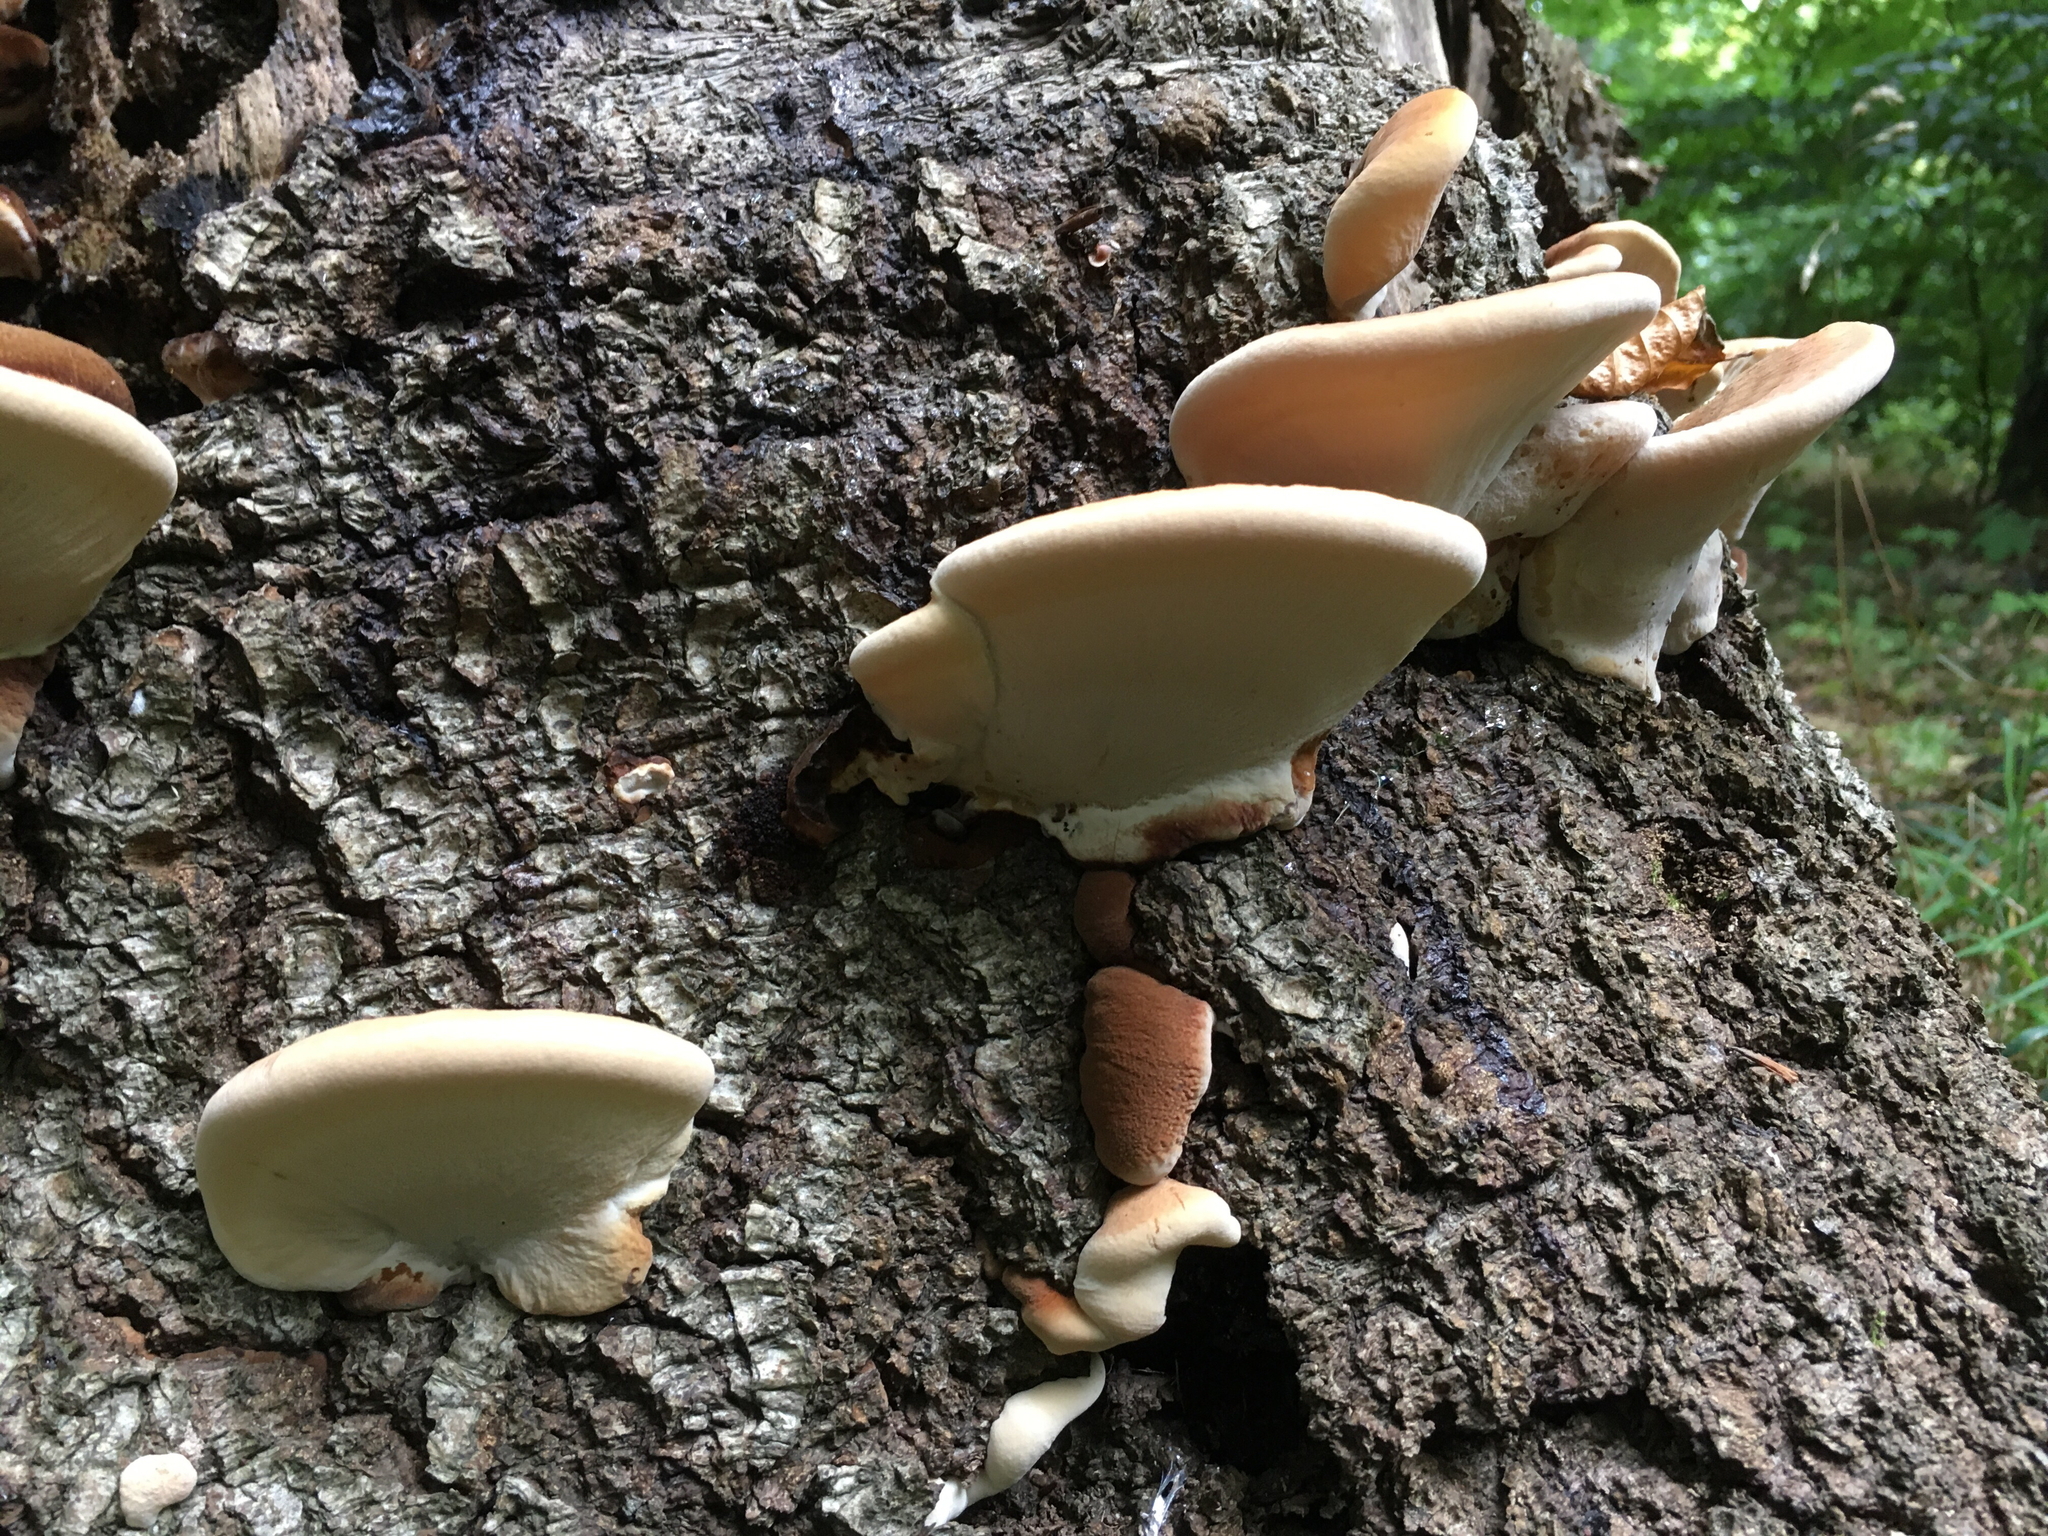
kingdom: Fungi
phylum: Basidiomycota
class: Agaricomycetes
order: Polyporales
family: Ischnodermataceae
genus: Ischnoderma
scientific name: Ischnoderma resinosum
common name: Resinous polypore
